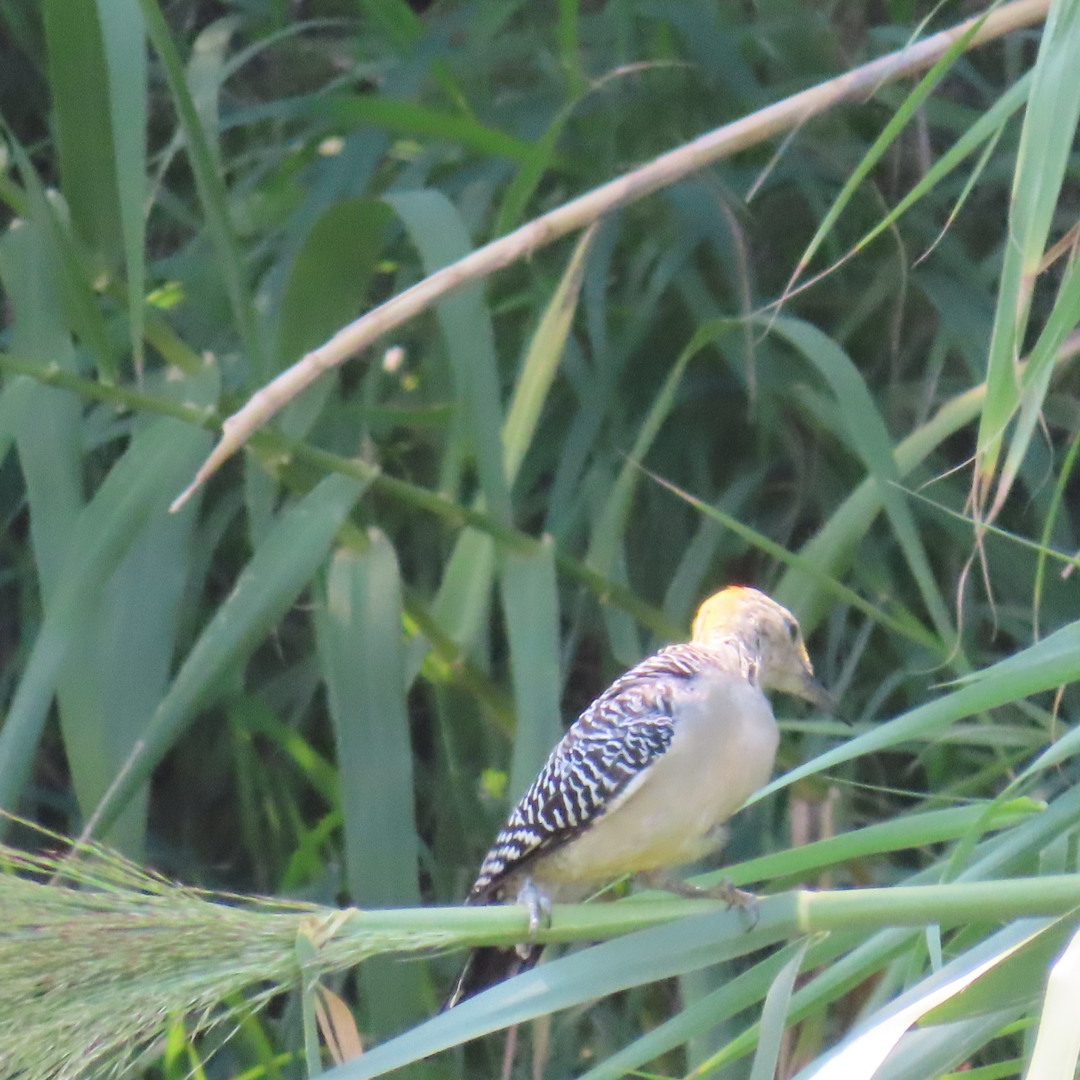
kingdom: Animalia
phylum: Chordata
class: Aves
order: Piciformes
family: Picidae
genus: Melanerpes
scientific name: Melanerpes aurifrons
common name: Golden-fronted woodpecker
